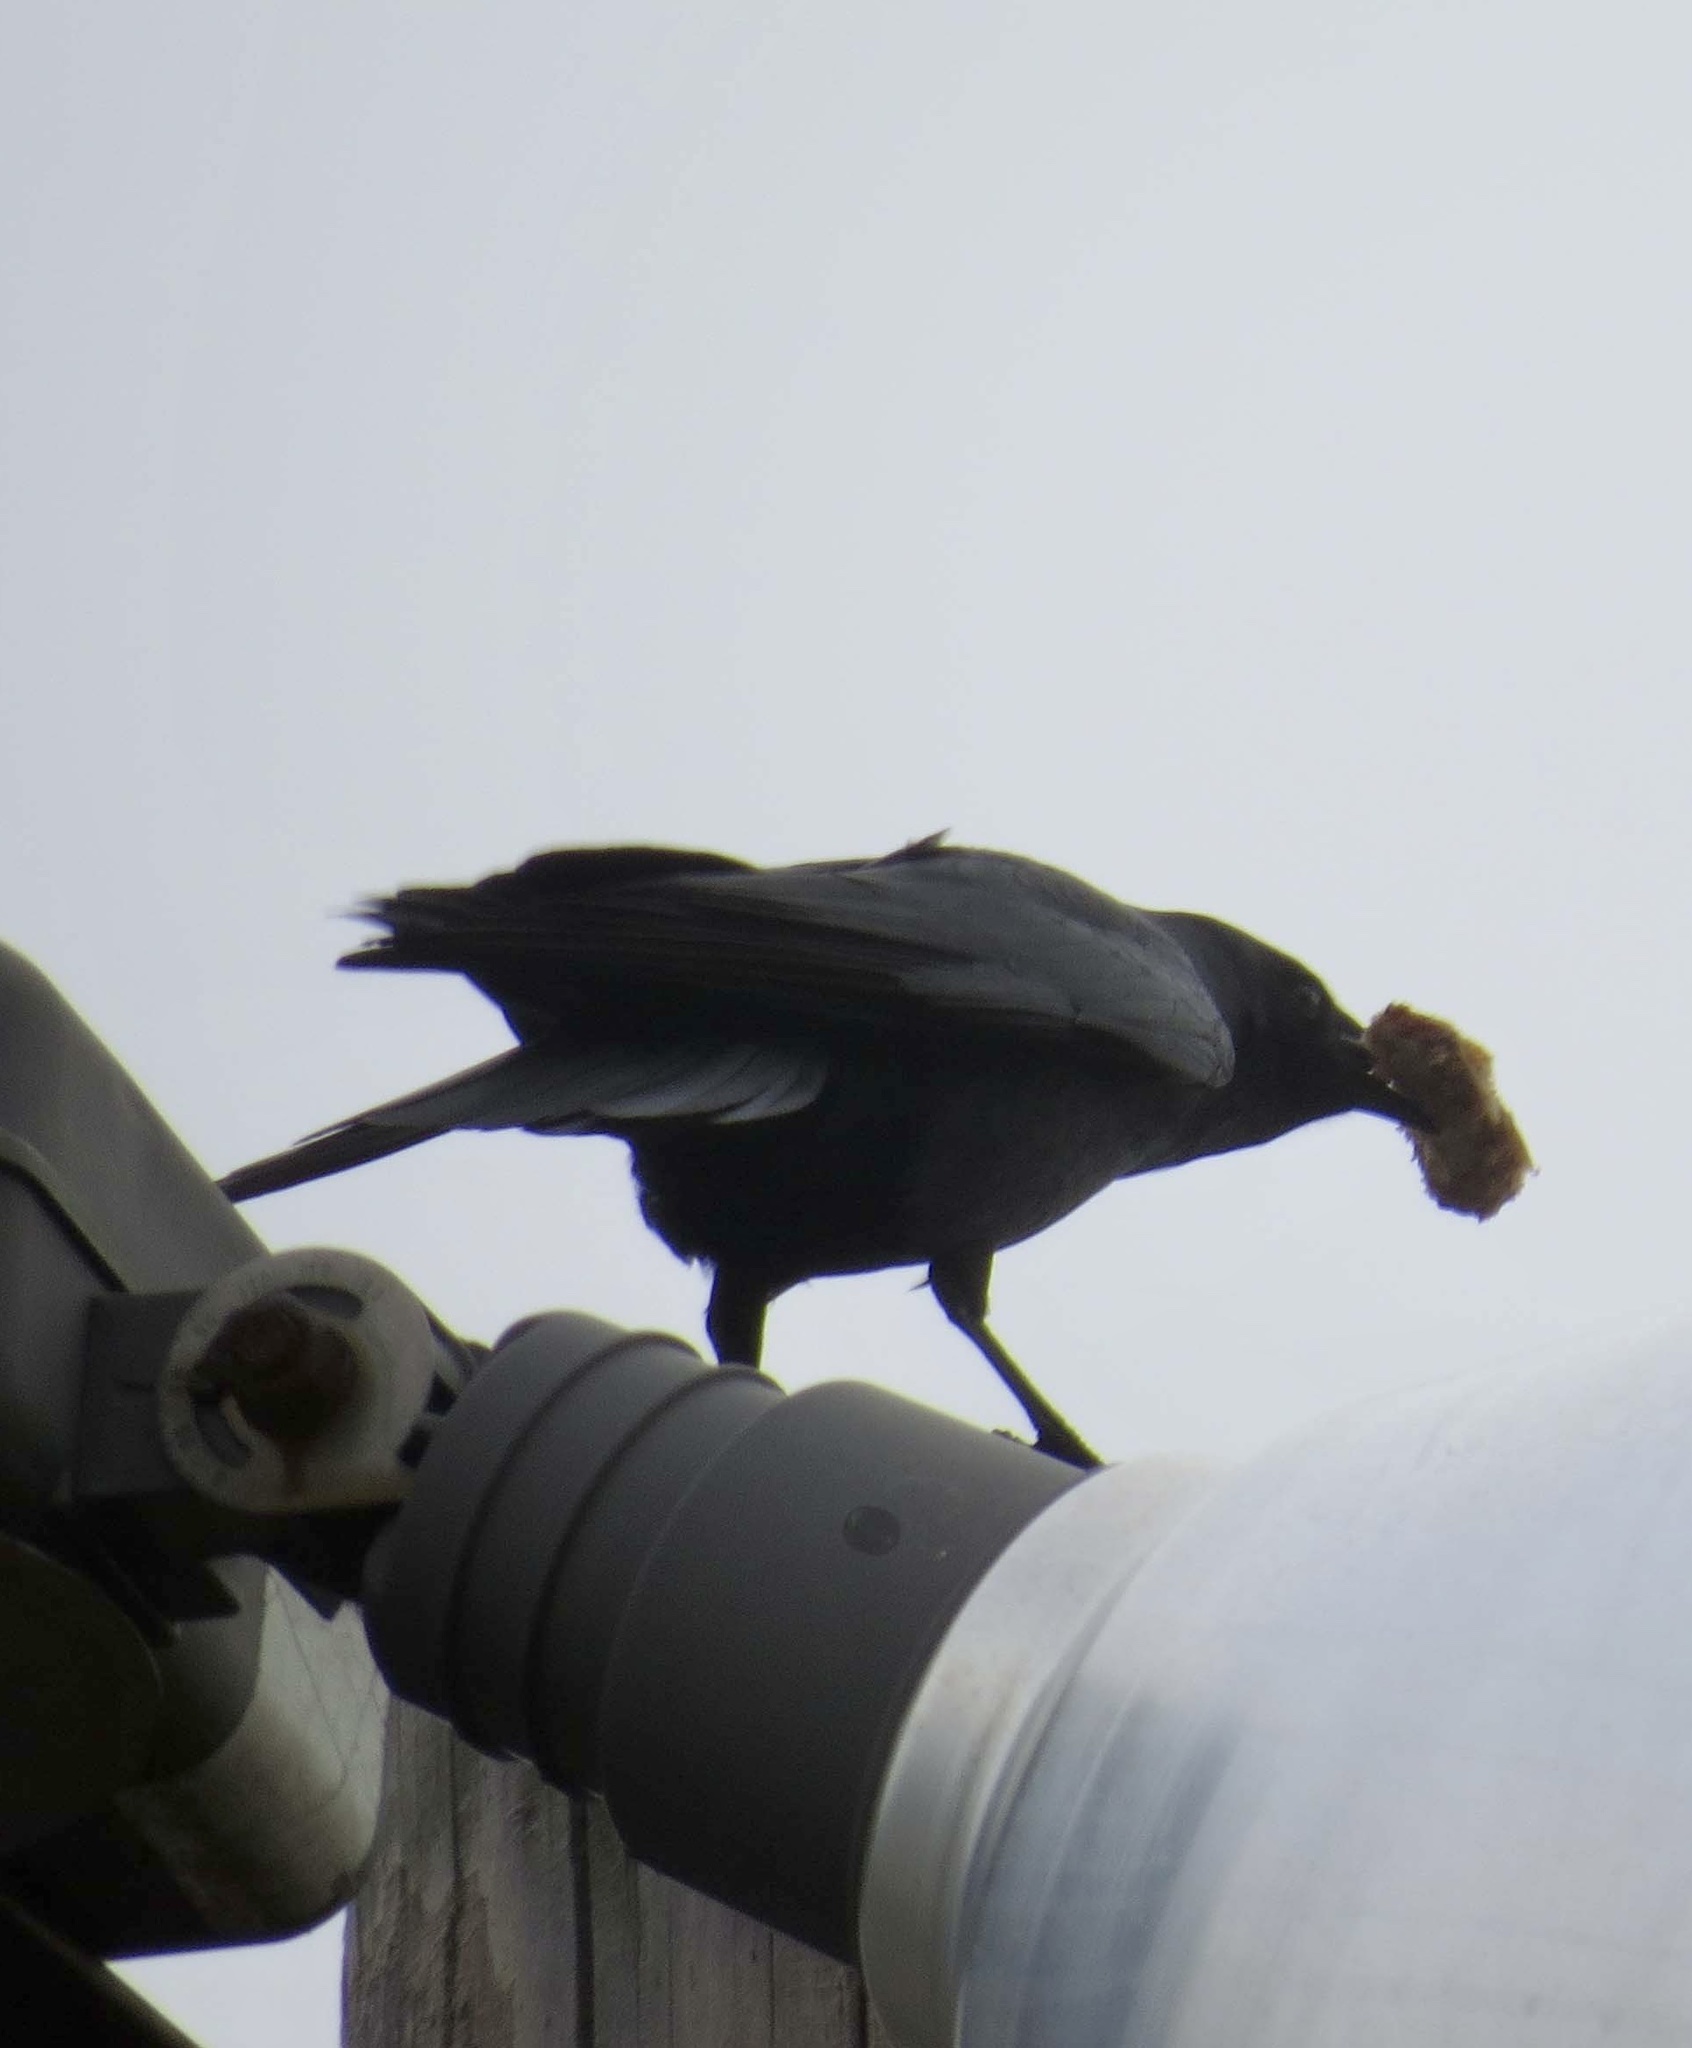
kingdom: Animalia
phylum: Chordata
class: Aves
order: Passeriformes
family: Corvidae
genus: Corvus
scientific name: Corvus ossifragus
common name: Fish crow
